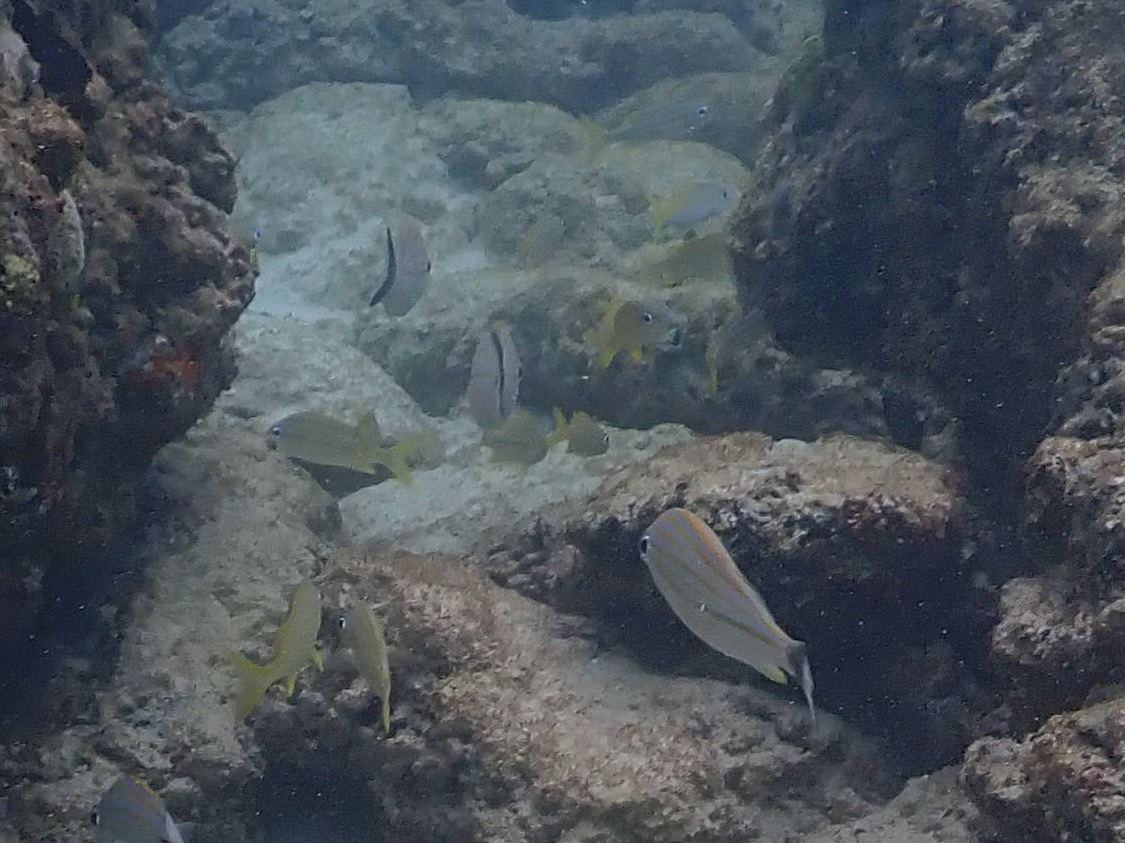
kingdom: Animalia
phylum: Chordata
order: Perciformes
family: Haemulidae
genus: Haemulon
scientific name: Haemulon carbonarium
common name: Caesar grunt
